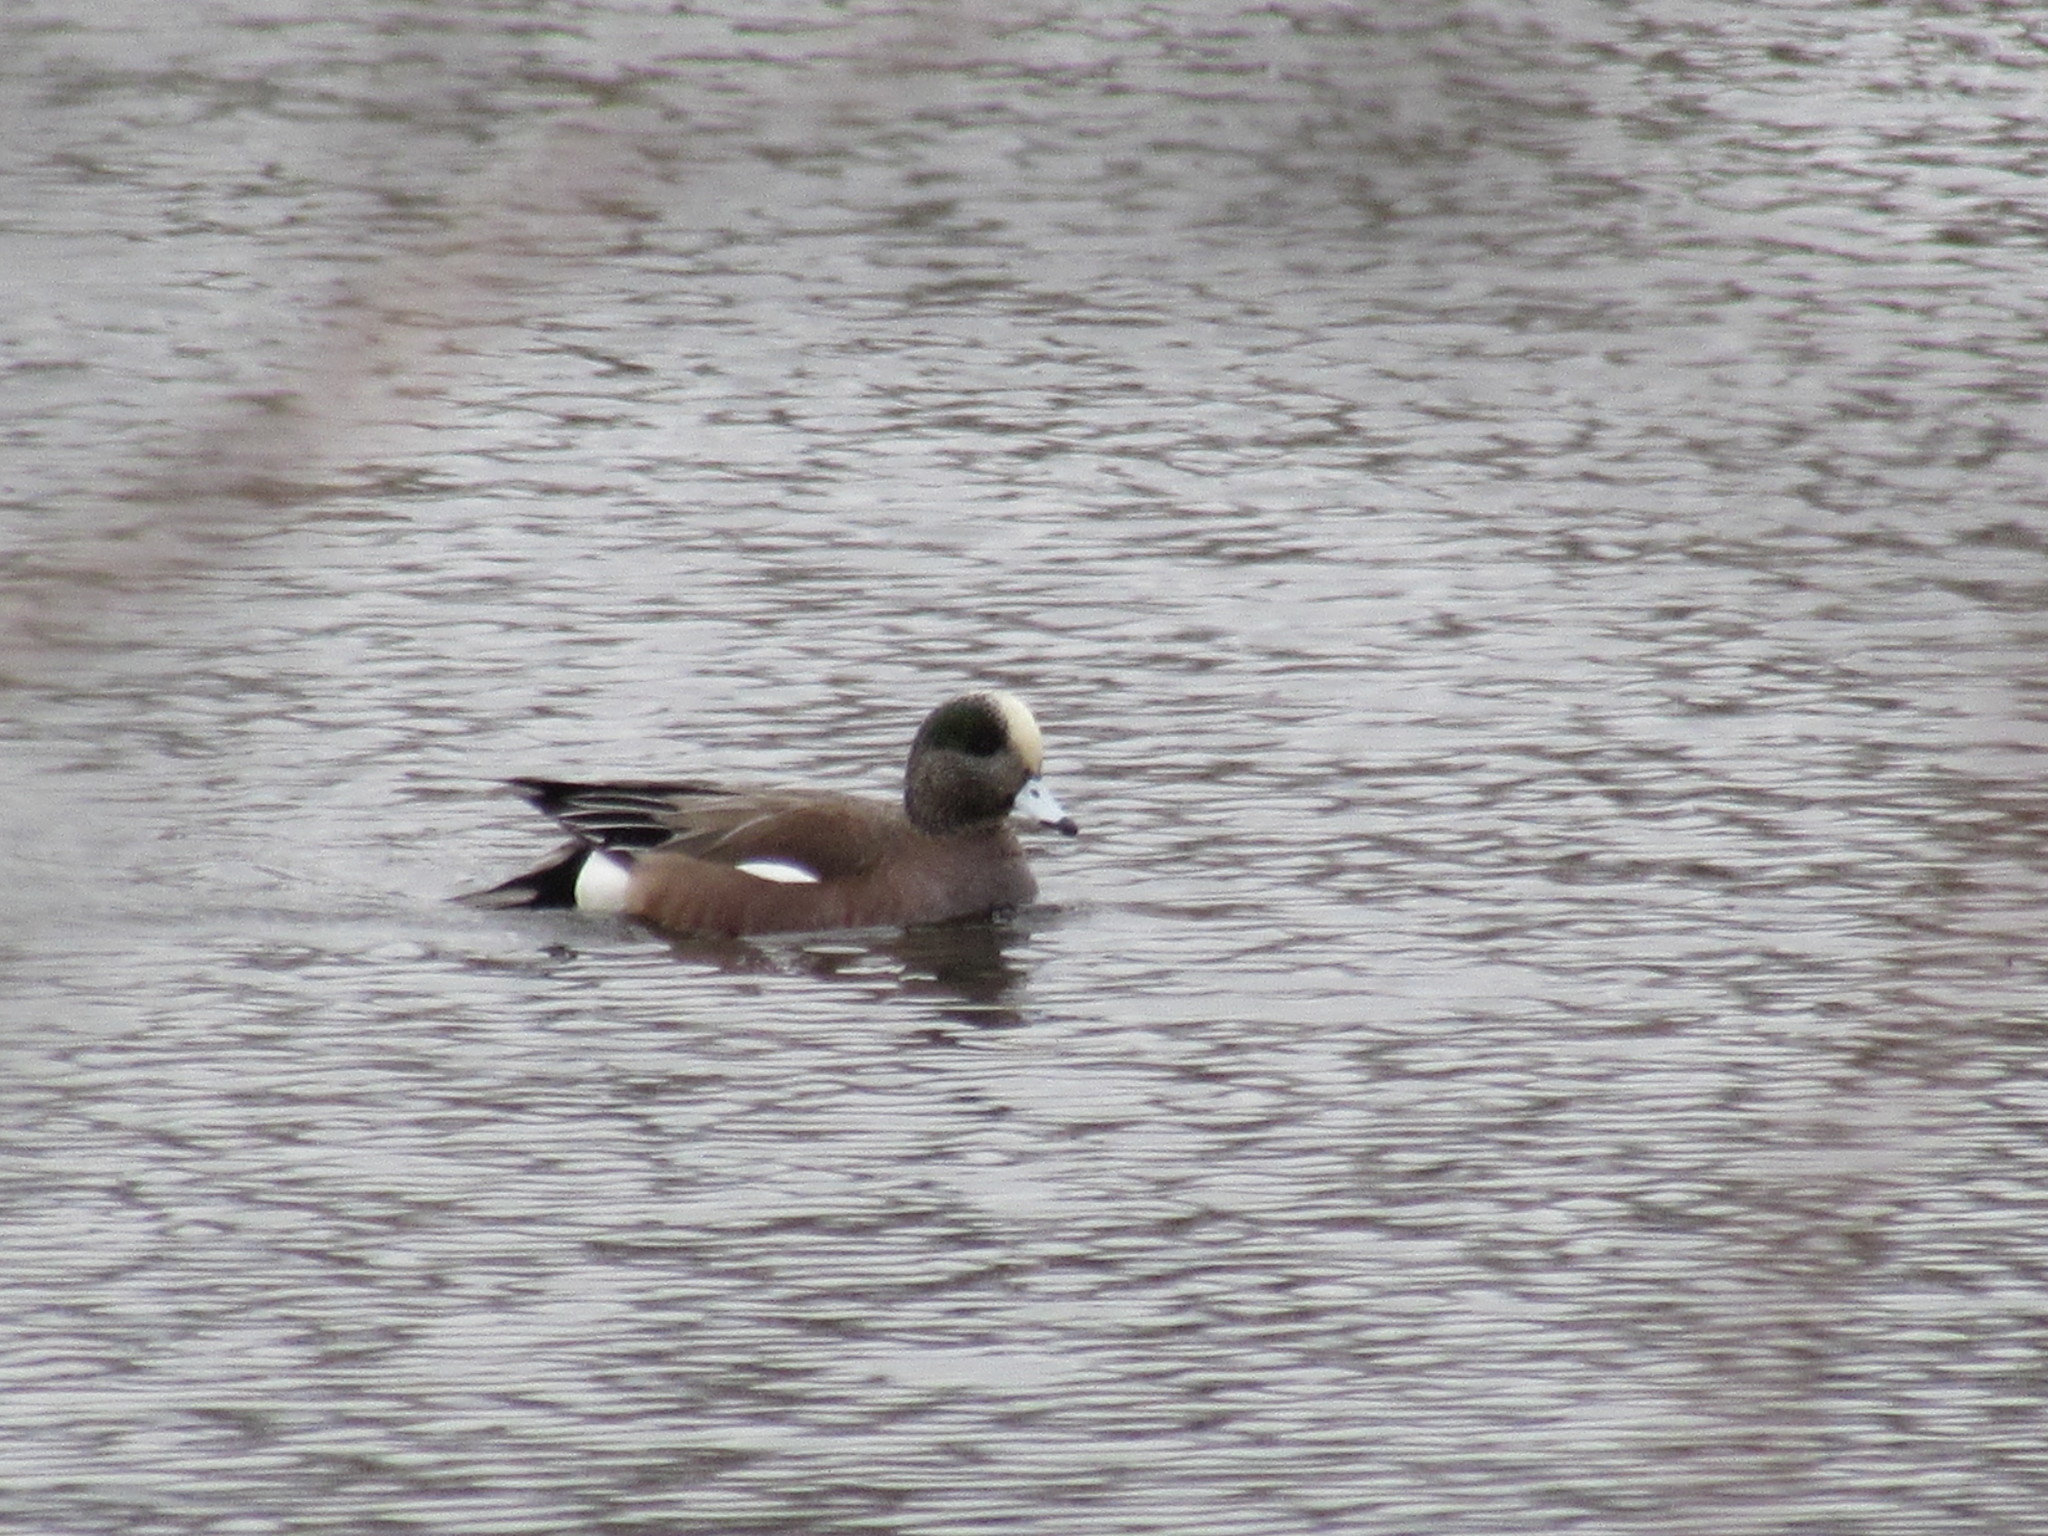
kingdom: Animalia
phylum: Chordata
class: Aves
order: Anseriformes
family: Anatidae
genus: Mareca
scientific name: Mareca americana
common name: American wigeon
